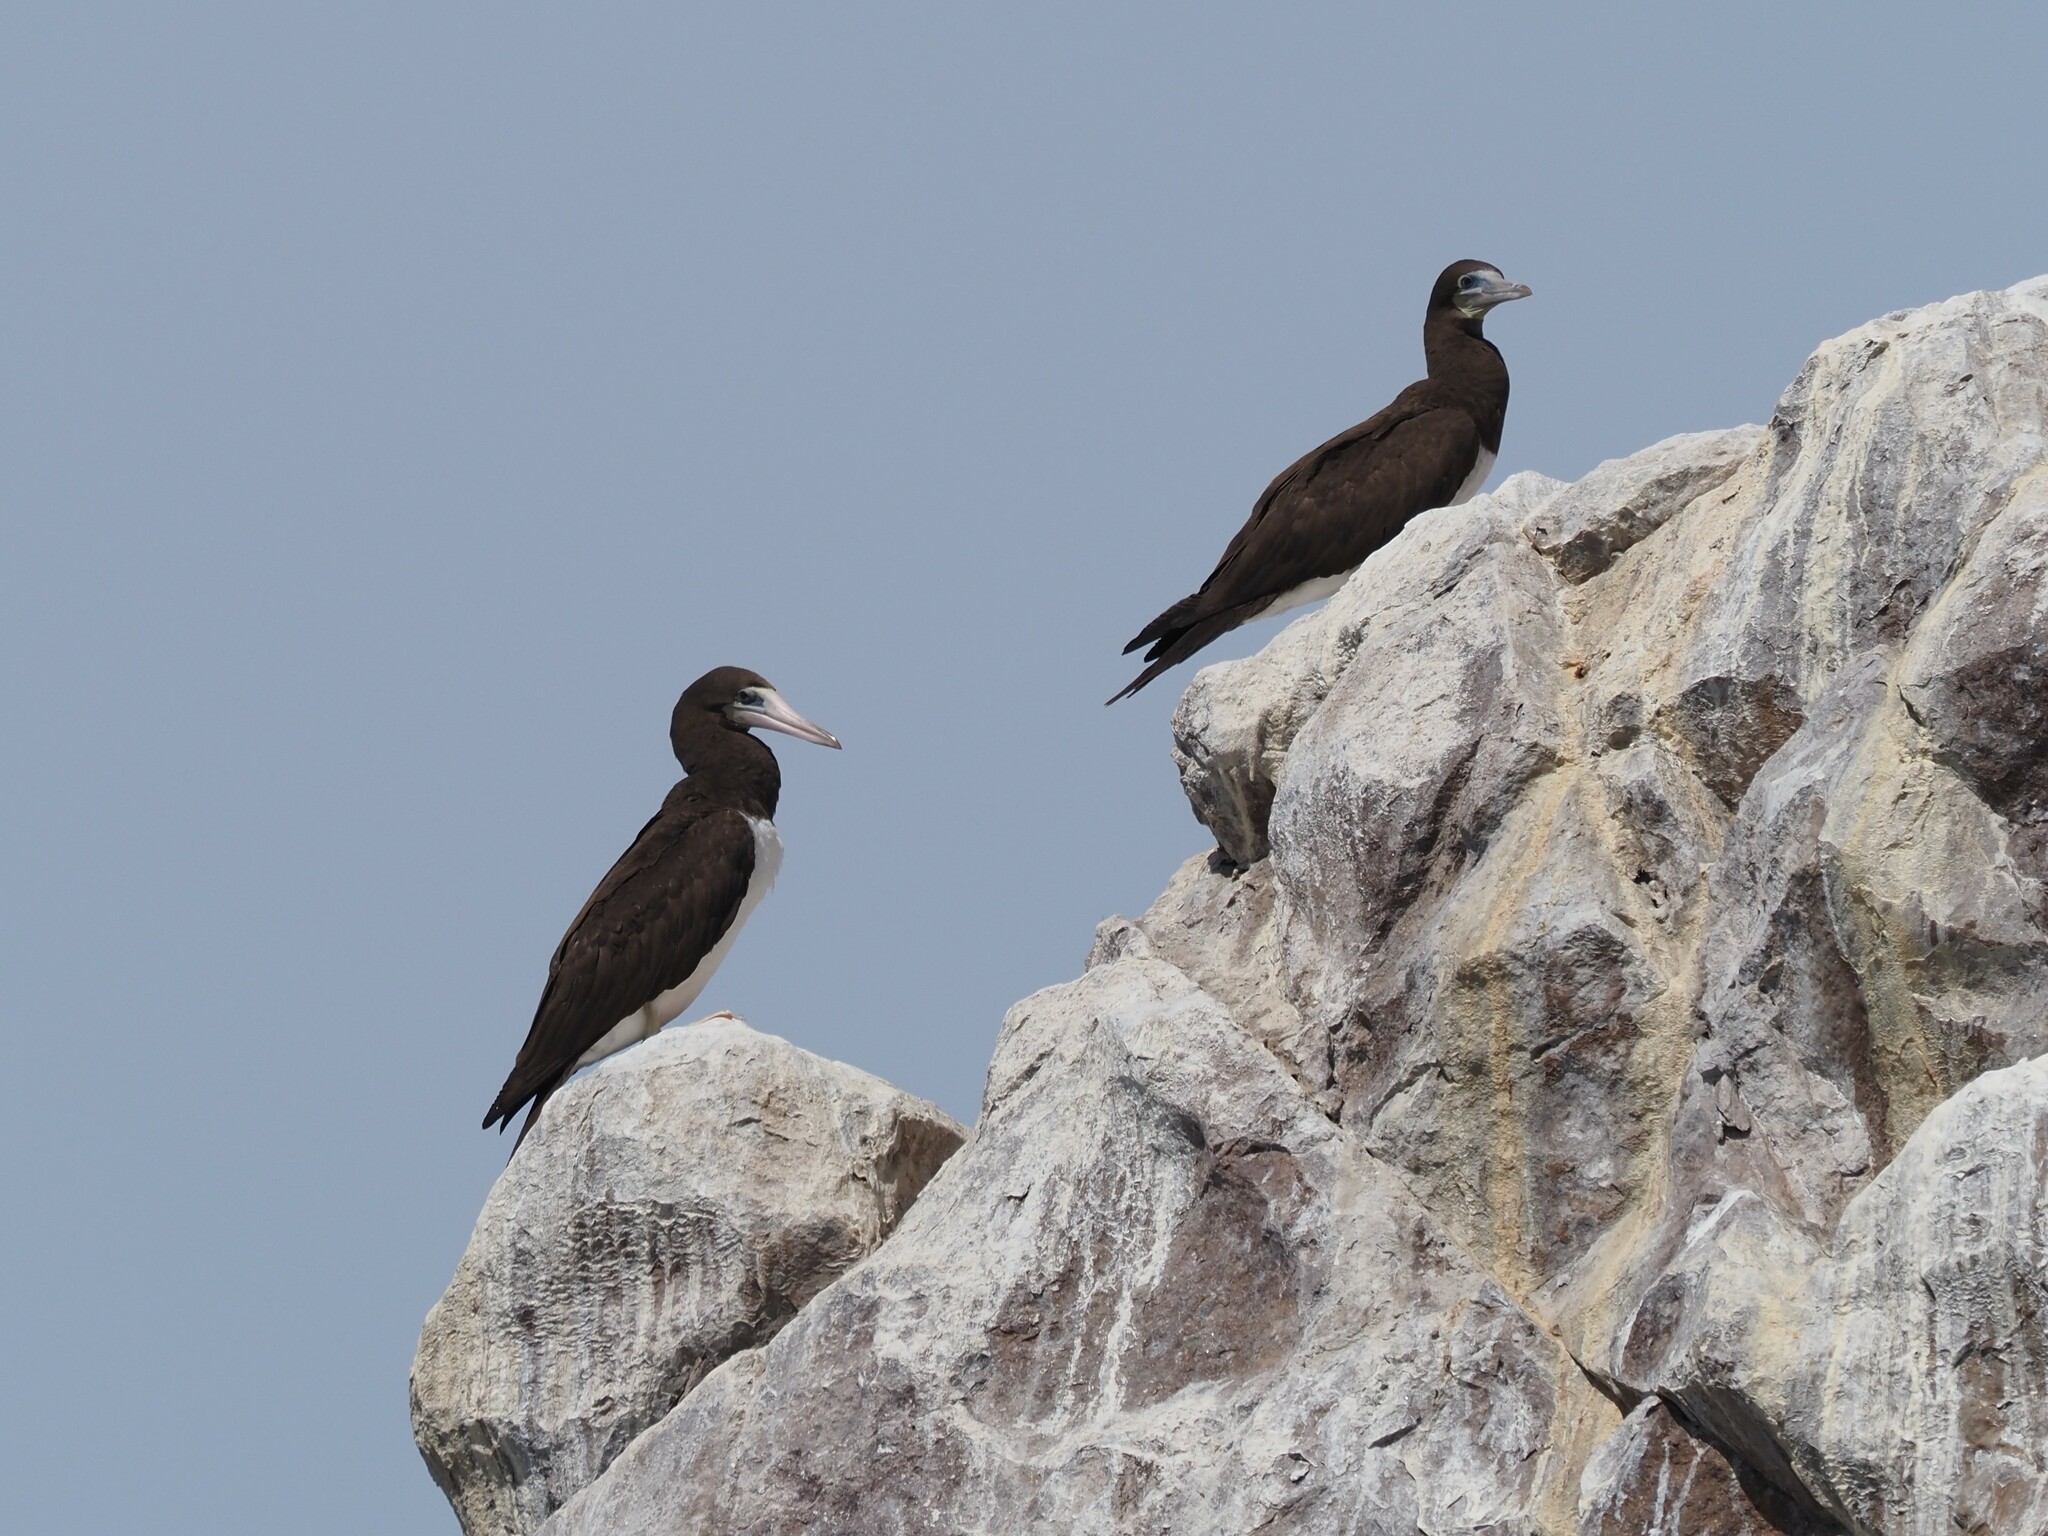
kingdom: Animalia
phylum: Chordata
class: Aves
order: Suliformes
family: Sulidae
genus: Sula
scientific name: Sula leucogaster
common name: Brown booby
